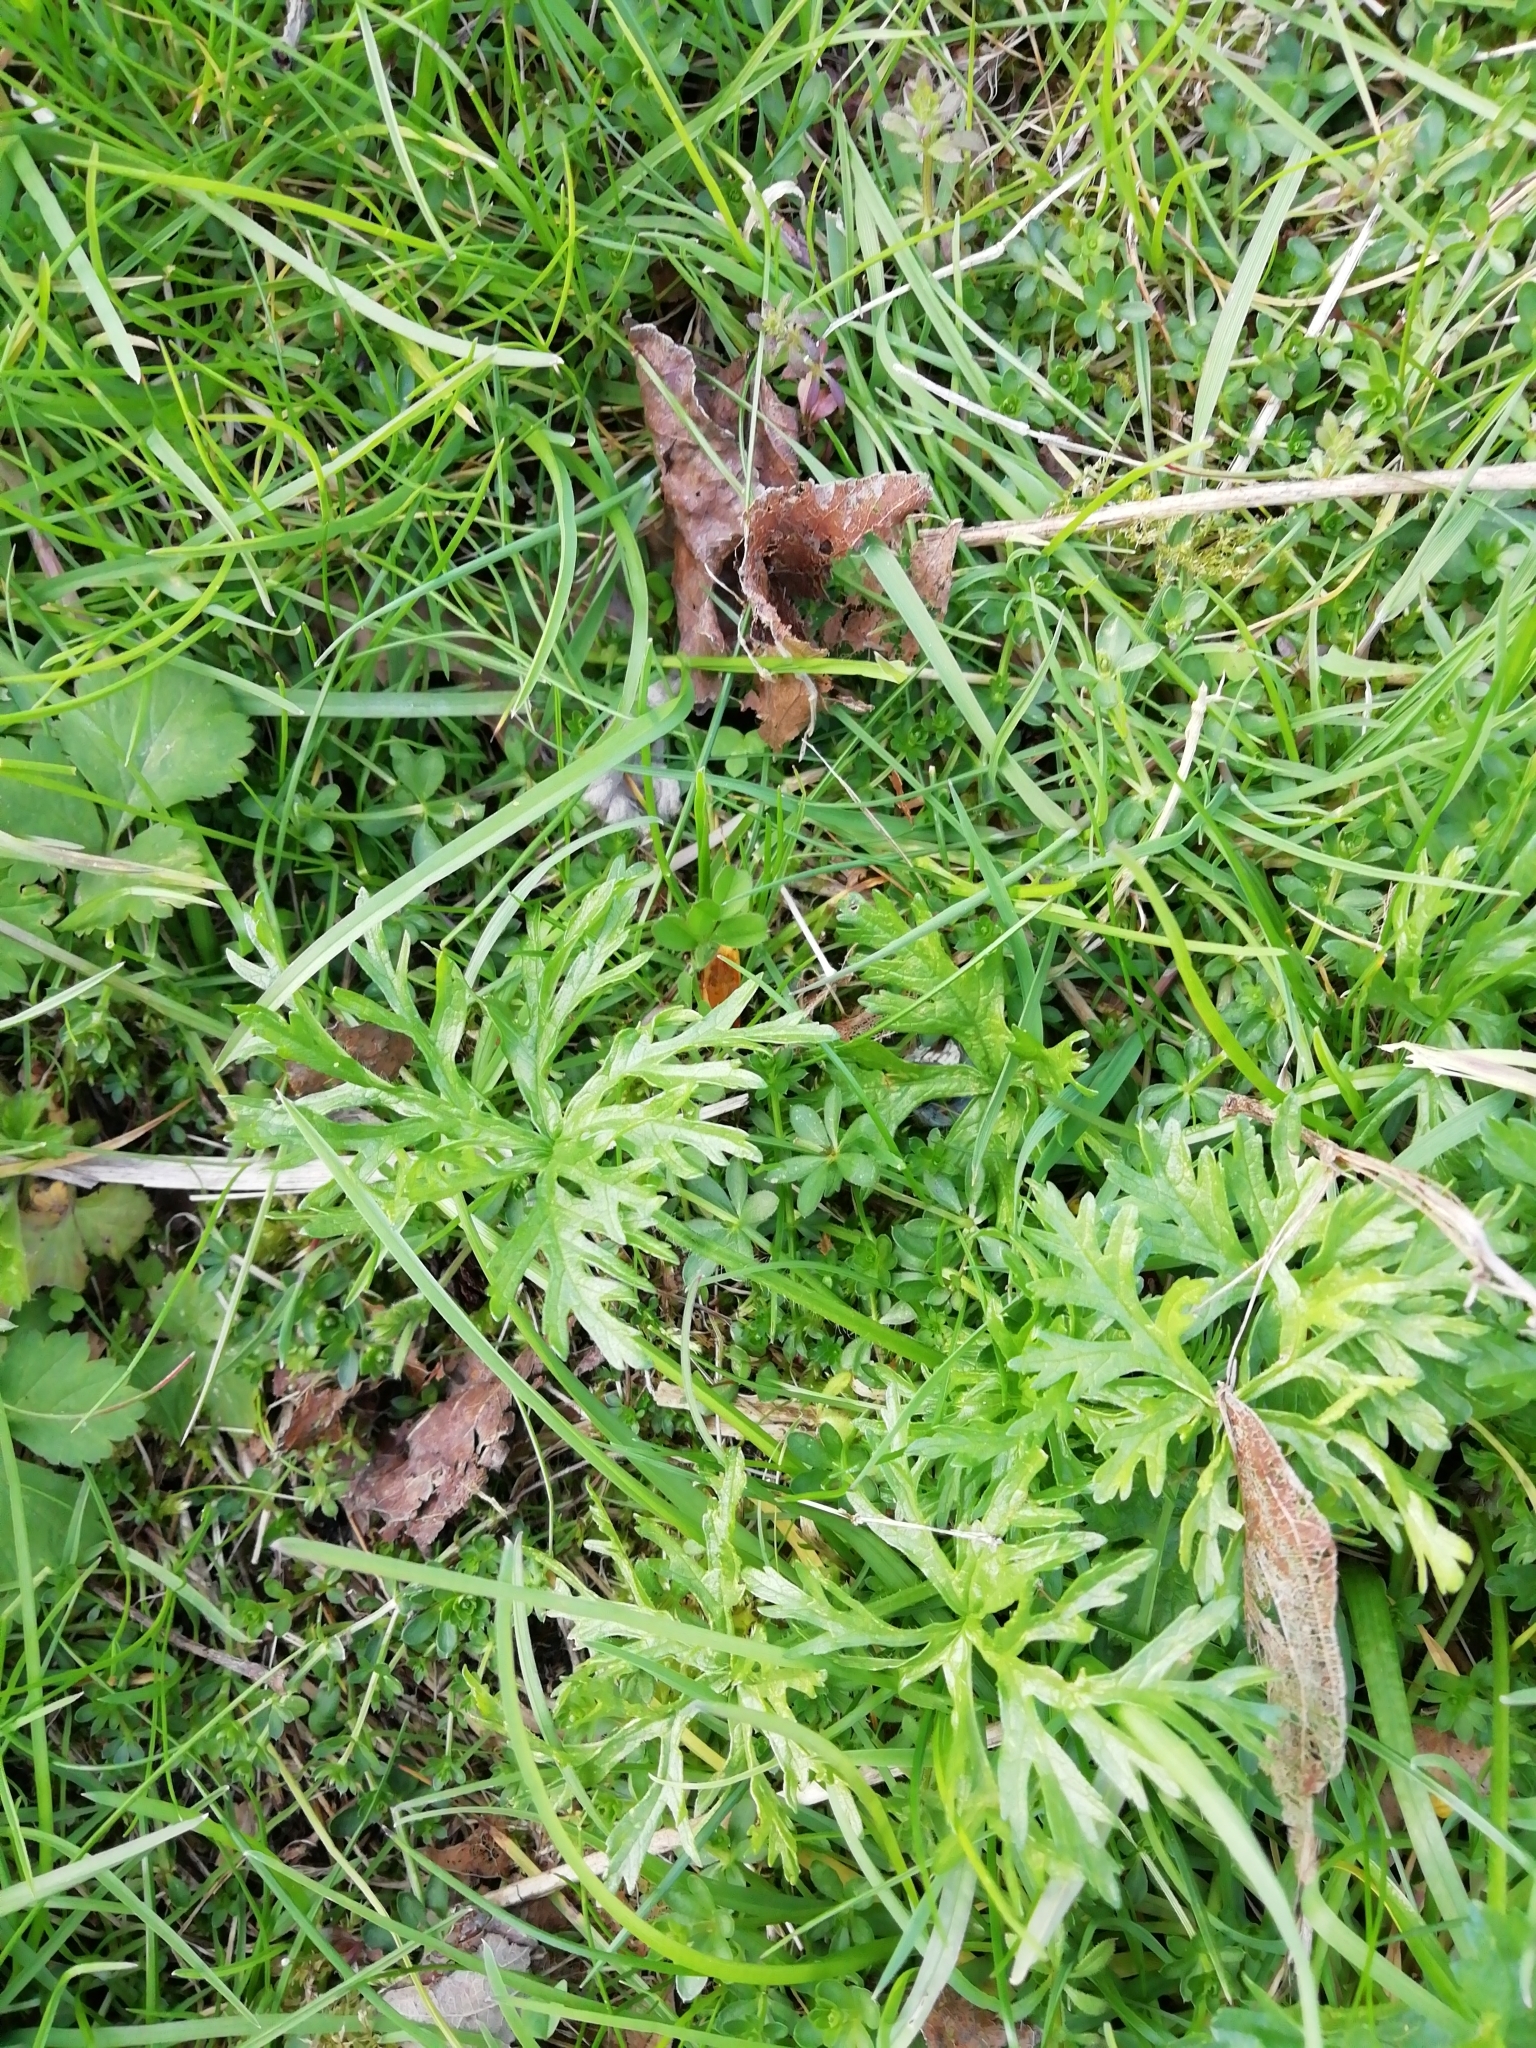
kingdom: Plantae
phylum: Tracheophyta
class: Magnoliopsida
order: Malvales
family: Malvaceae
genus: Malva
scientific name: Malva moschata
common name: Musk mallow
